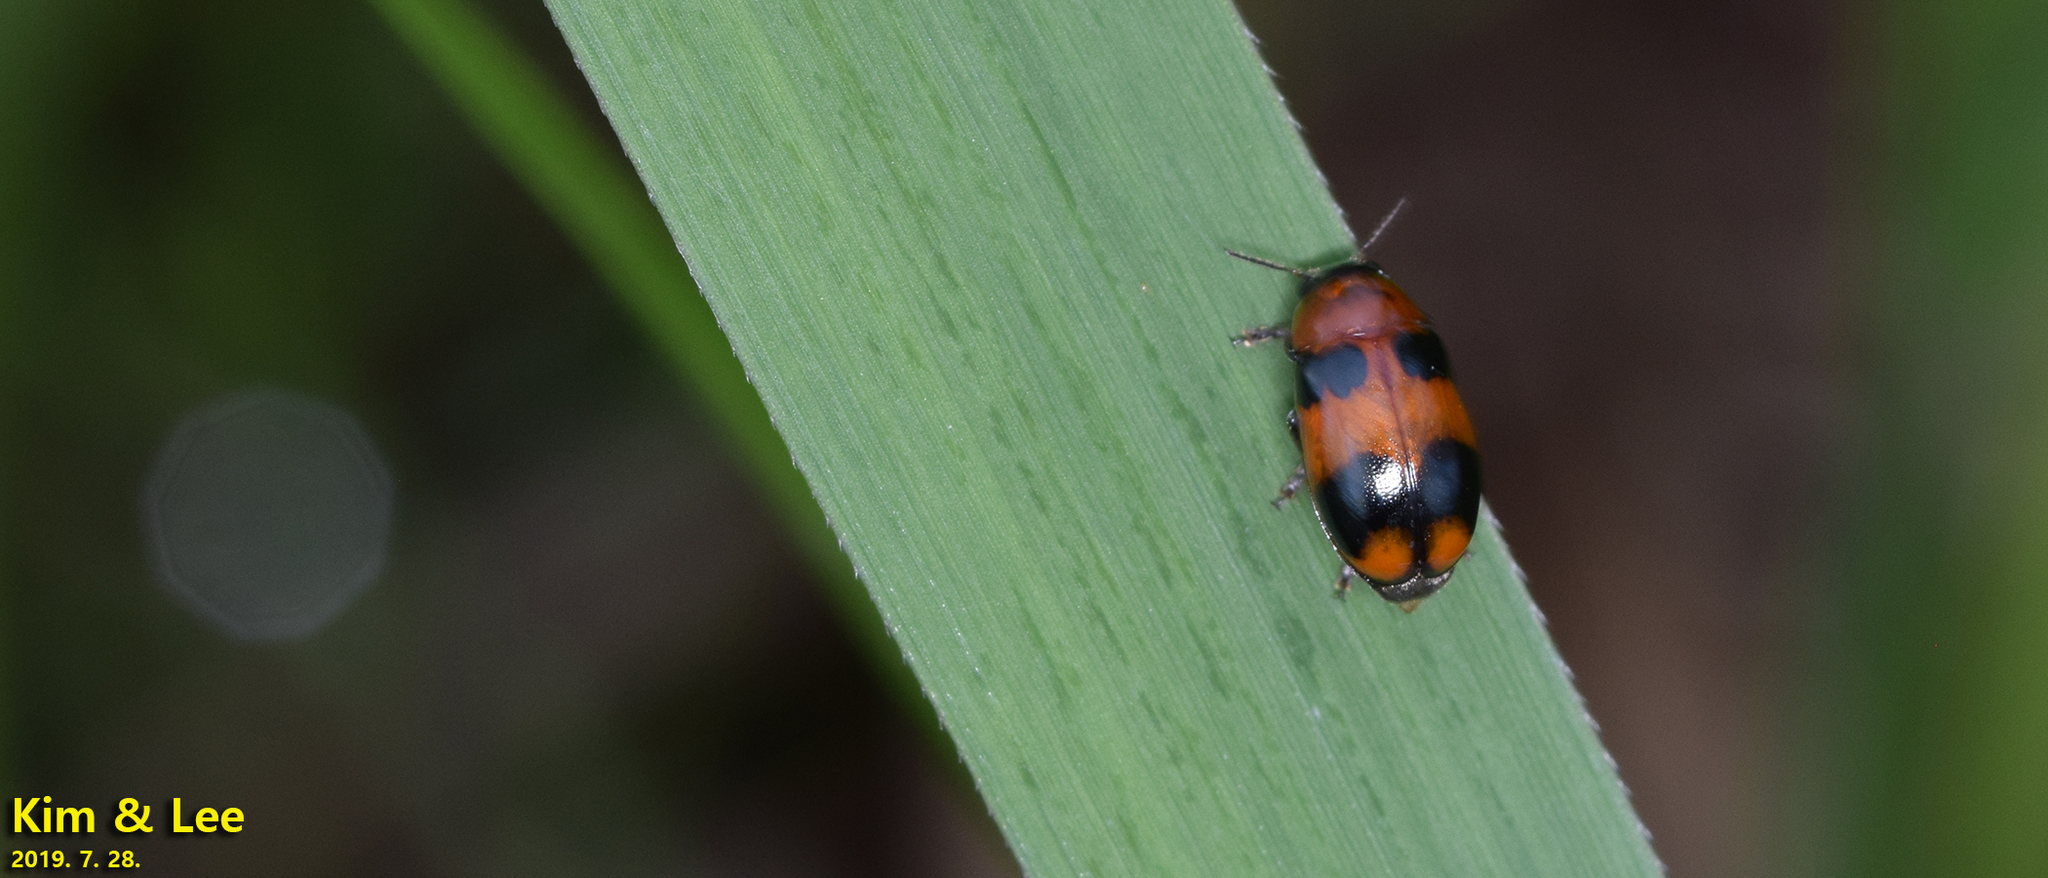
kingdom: Animalia
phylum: Arthropoda
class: Insecta
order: Coleoptera
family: Chrysomelidae
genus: Physosmaragdina
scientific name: Physosmaragdina nigrifrons
